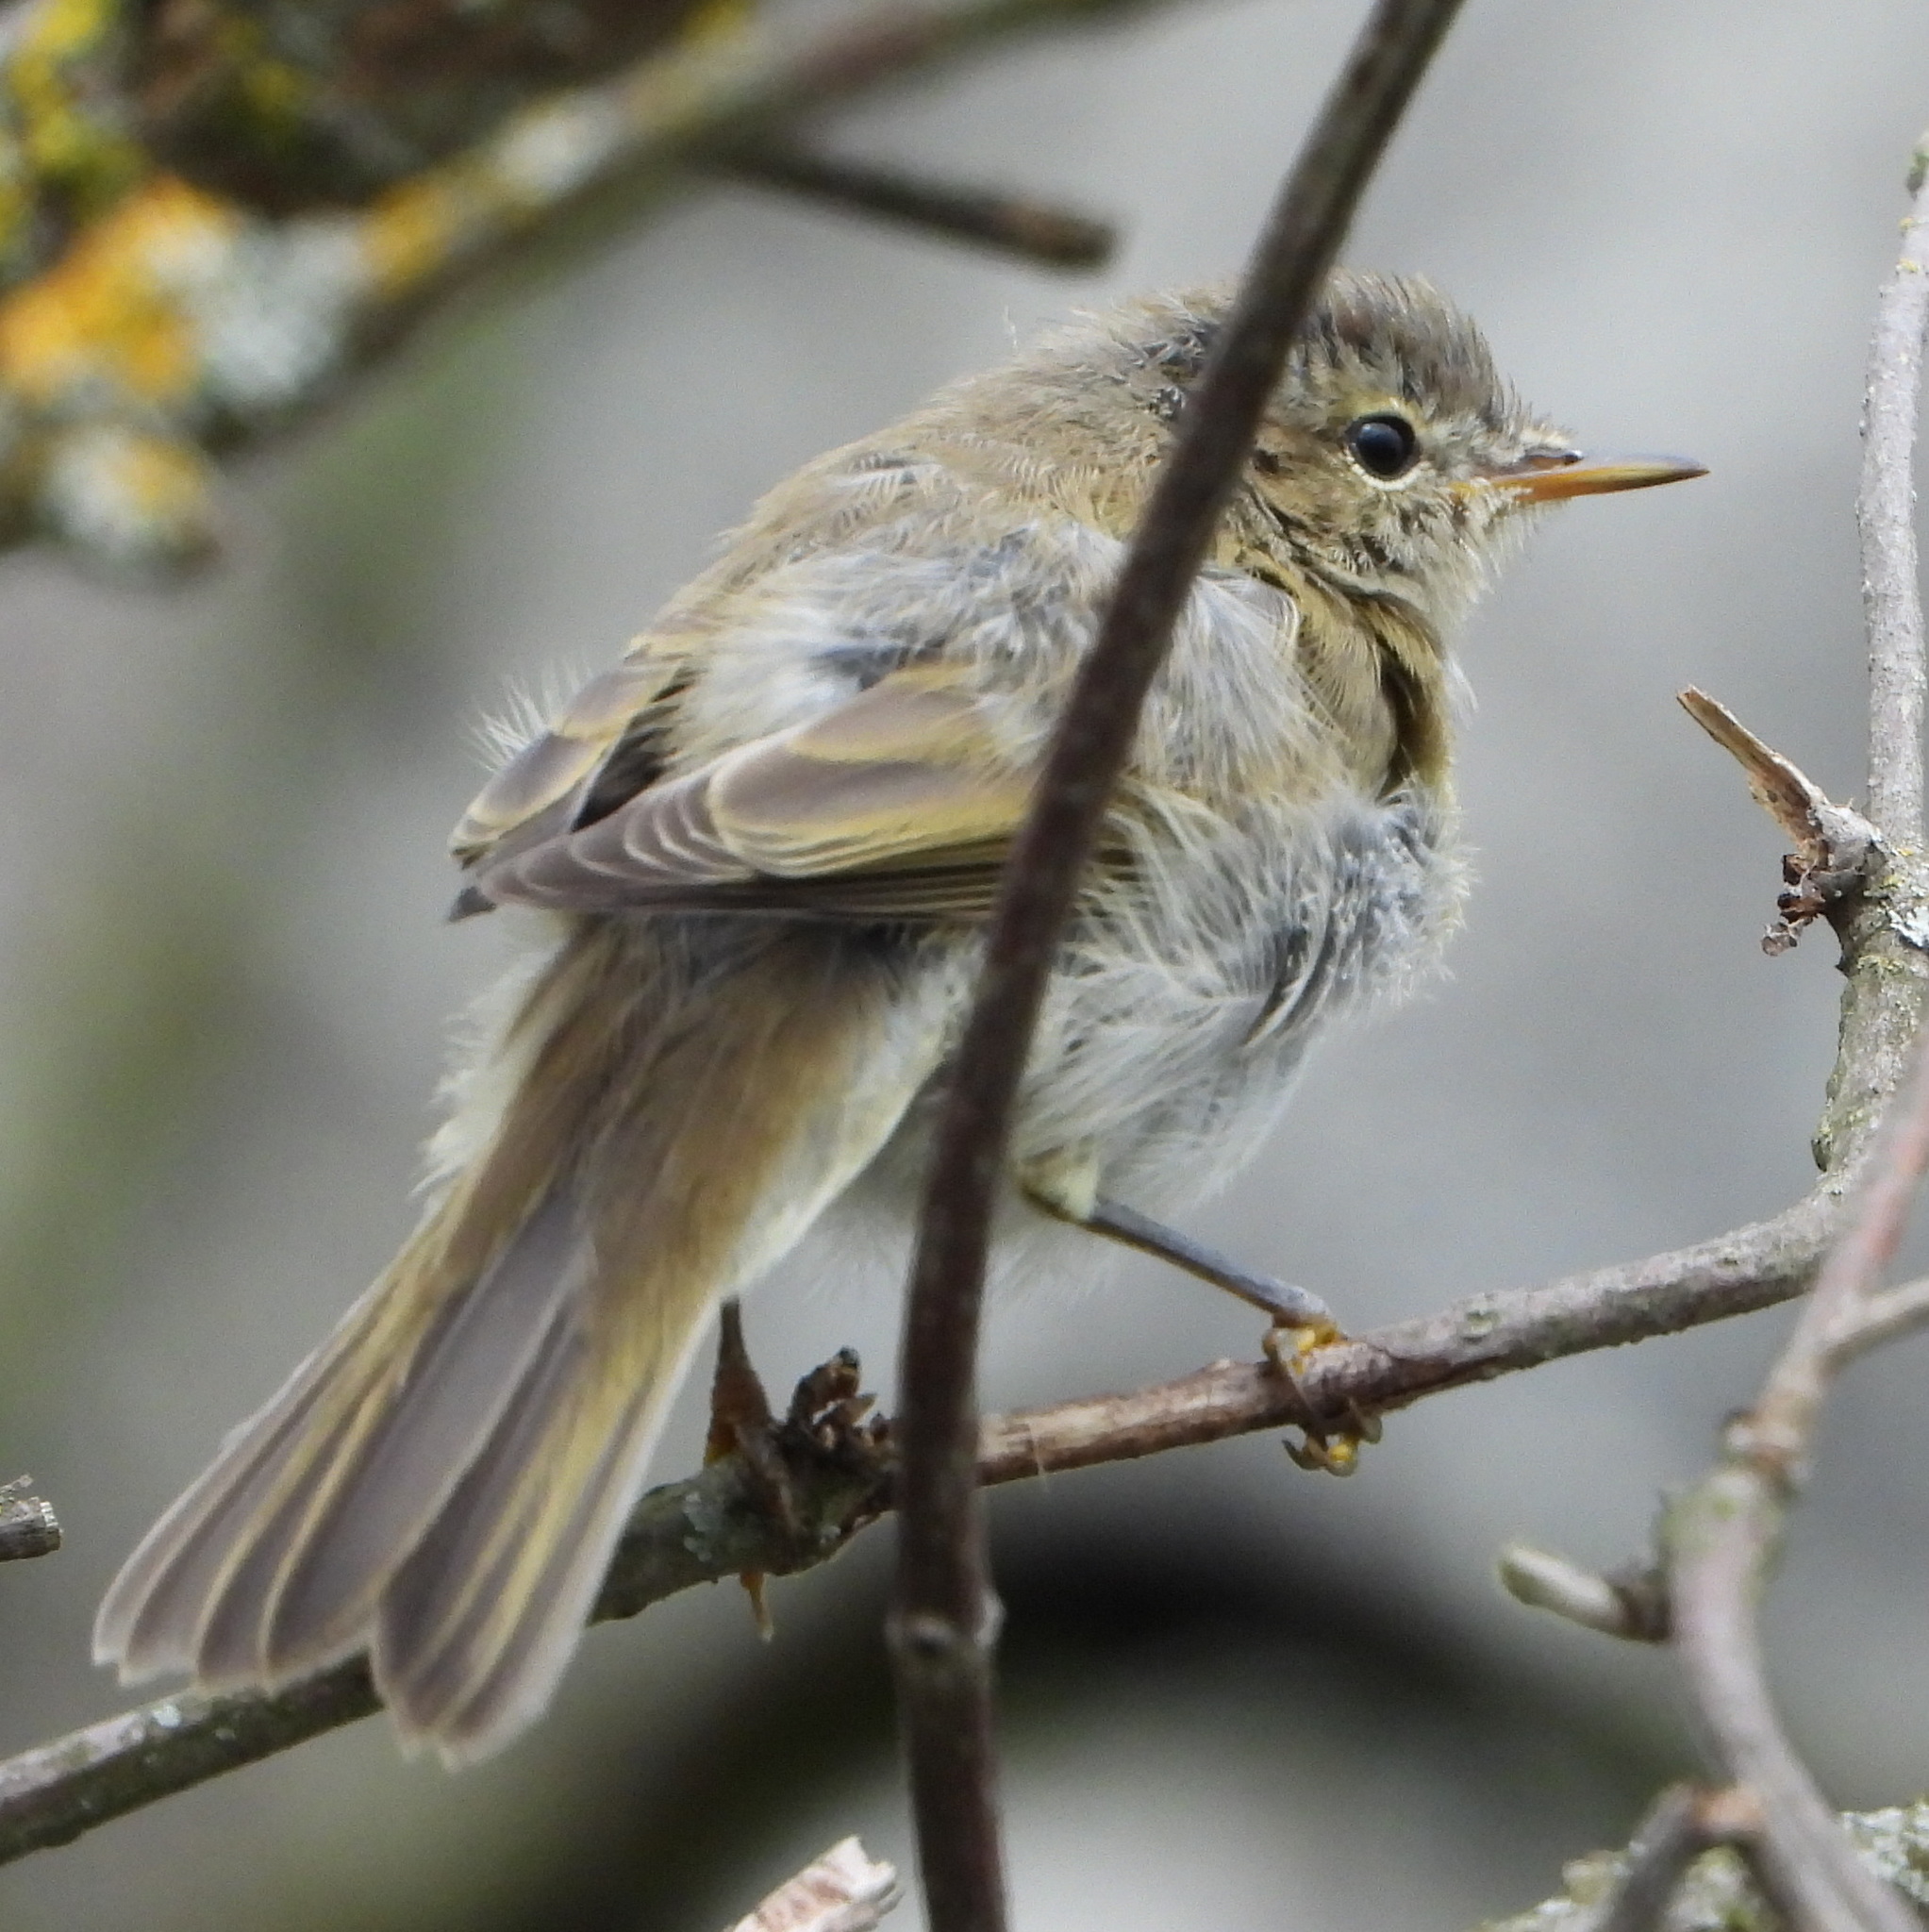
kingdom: Animalia
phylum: Chordata
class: Aves
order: Passeriformes
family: Phylloscopidae
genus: Phylloscopus
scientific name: Phylloscopus collybita
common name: Common chiffchaff
